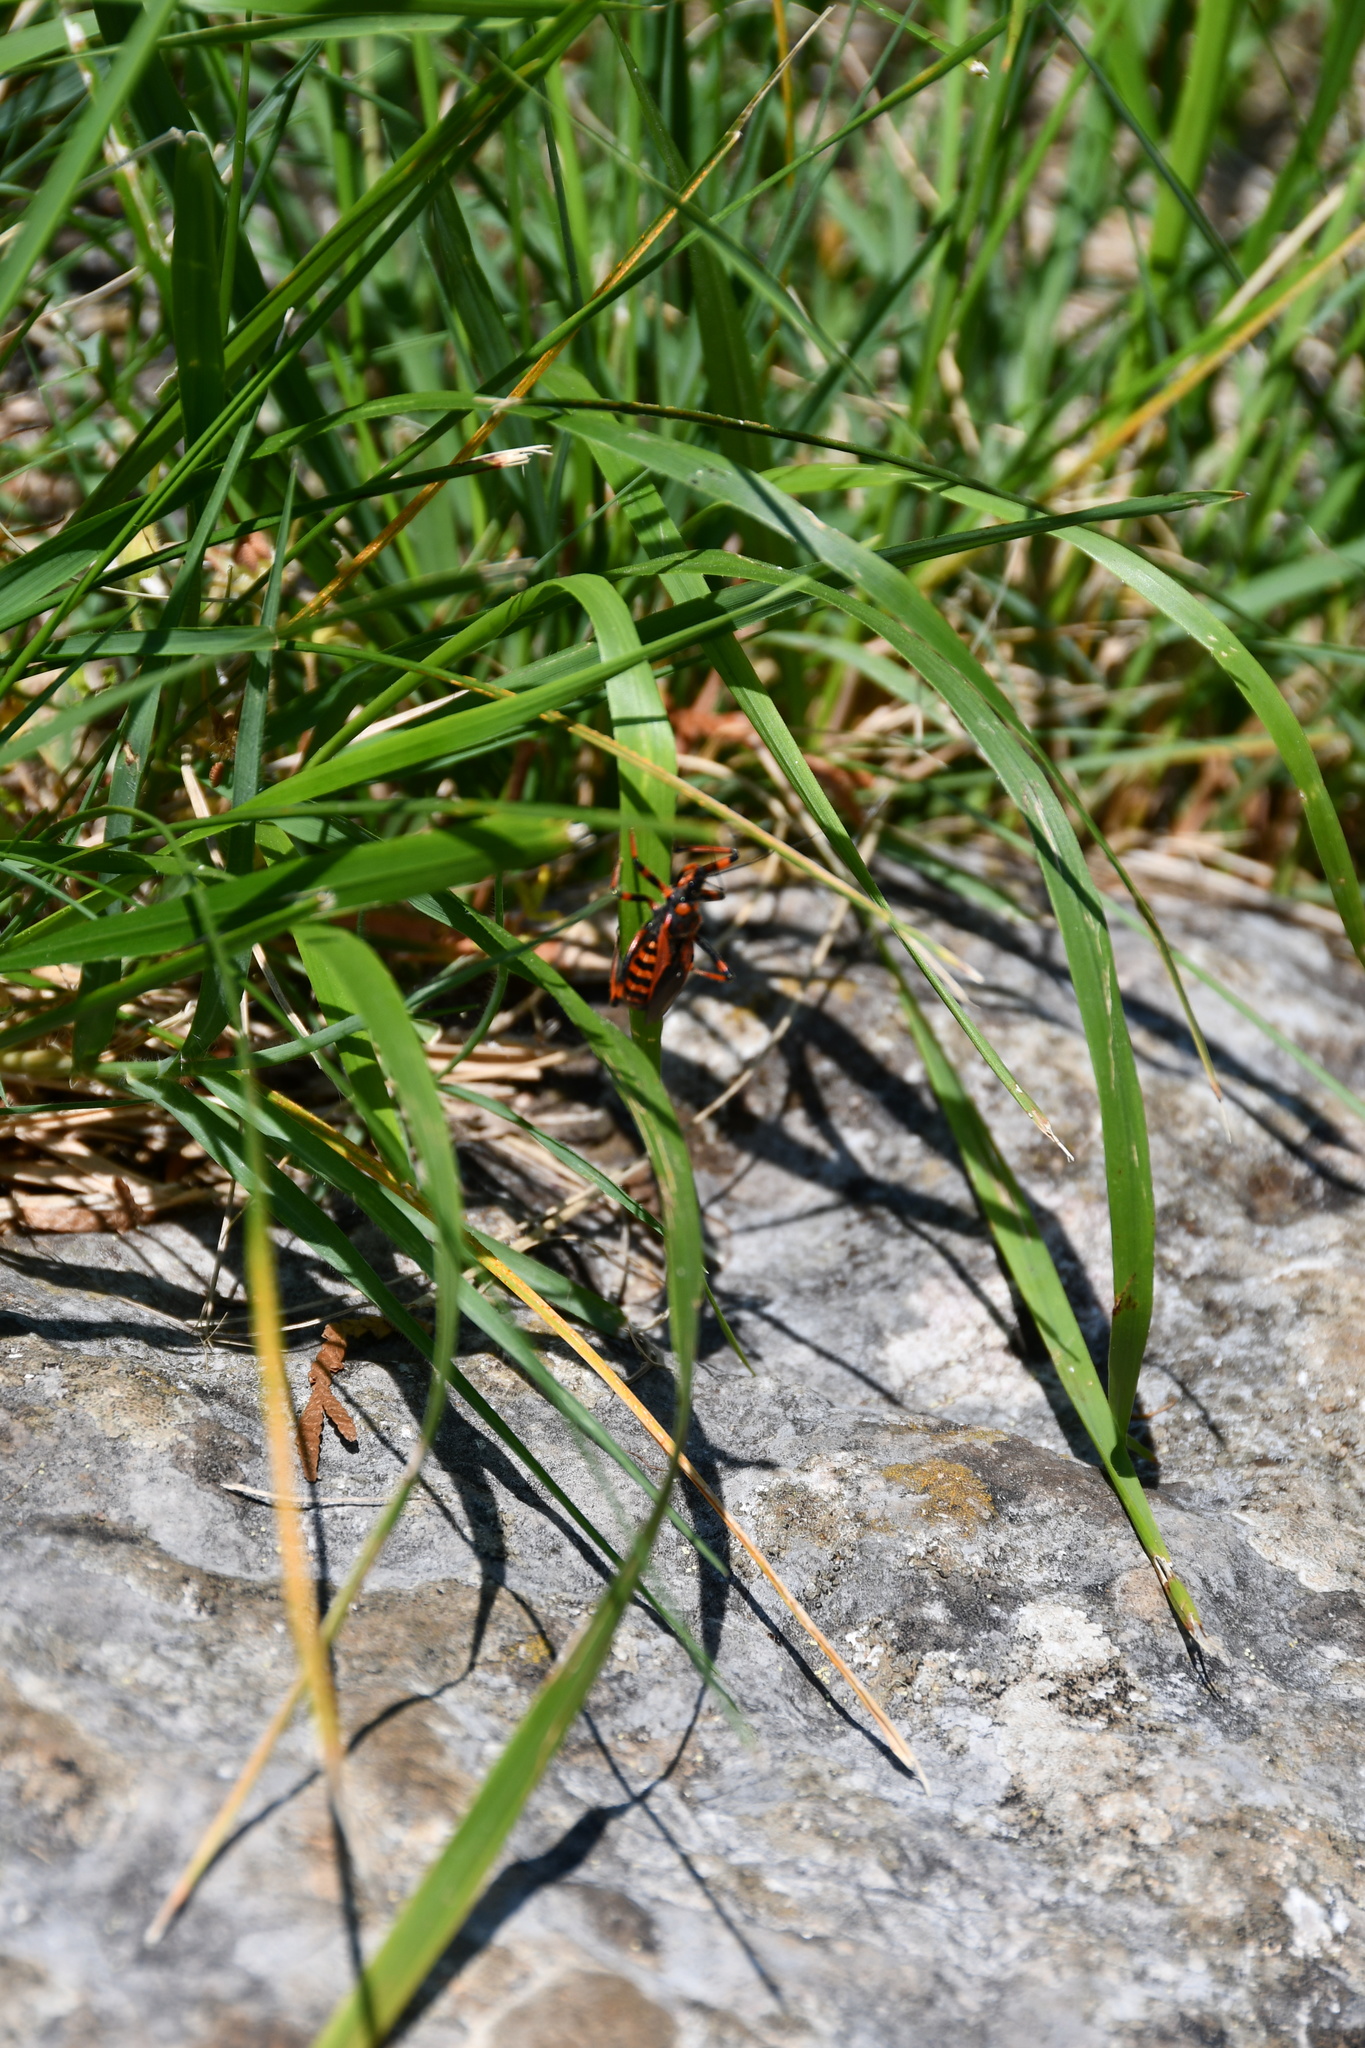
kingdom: Animalia
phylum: Arthropoda
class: Insecta
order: Hemiptera
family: Reduviidae
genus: Rhynocoris
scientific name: Rhynocoris rubricus
